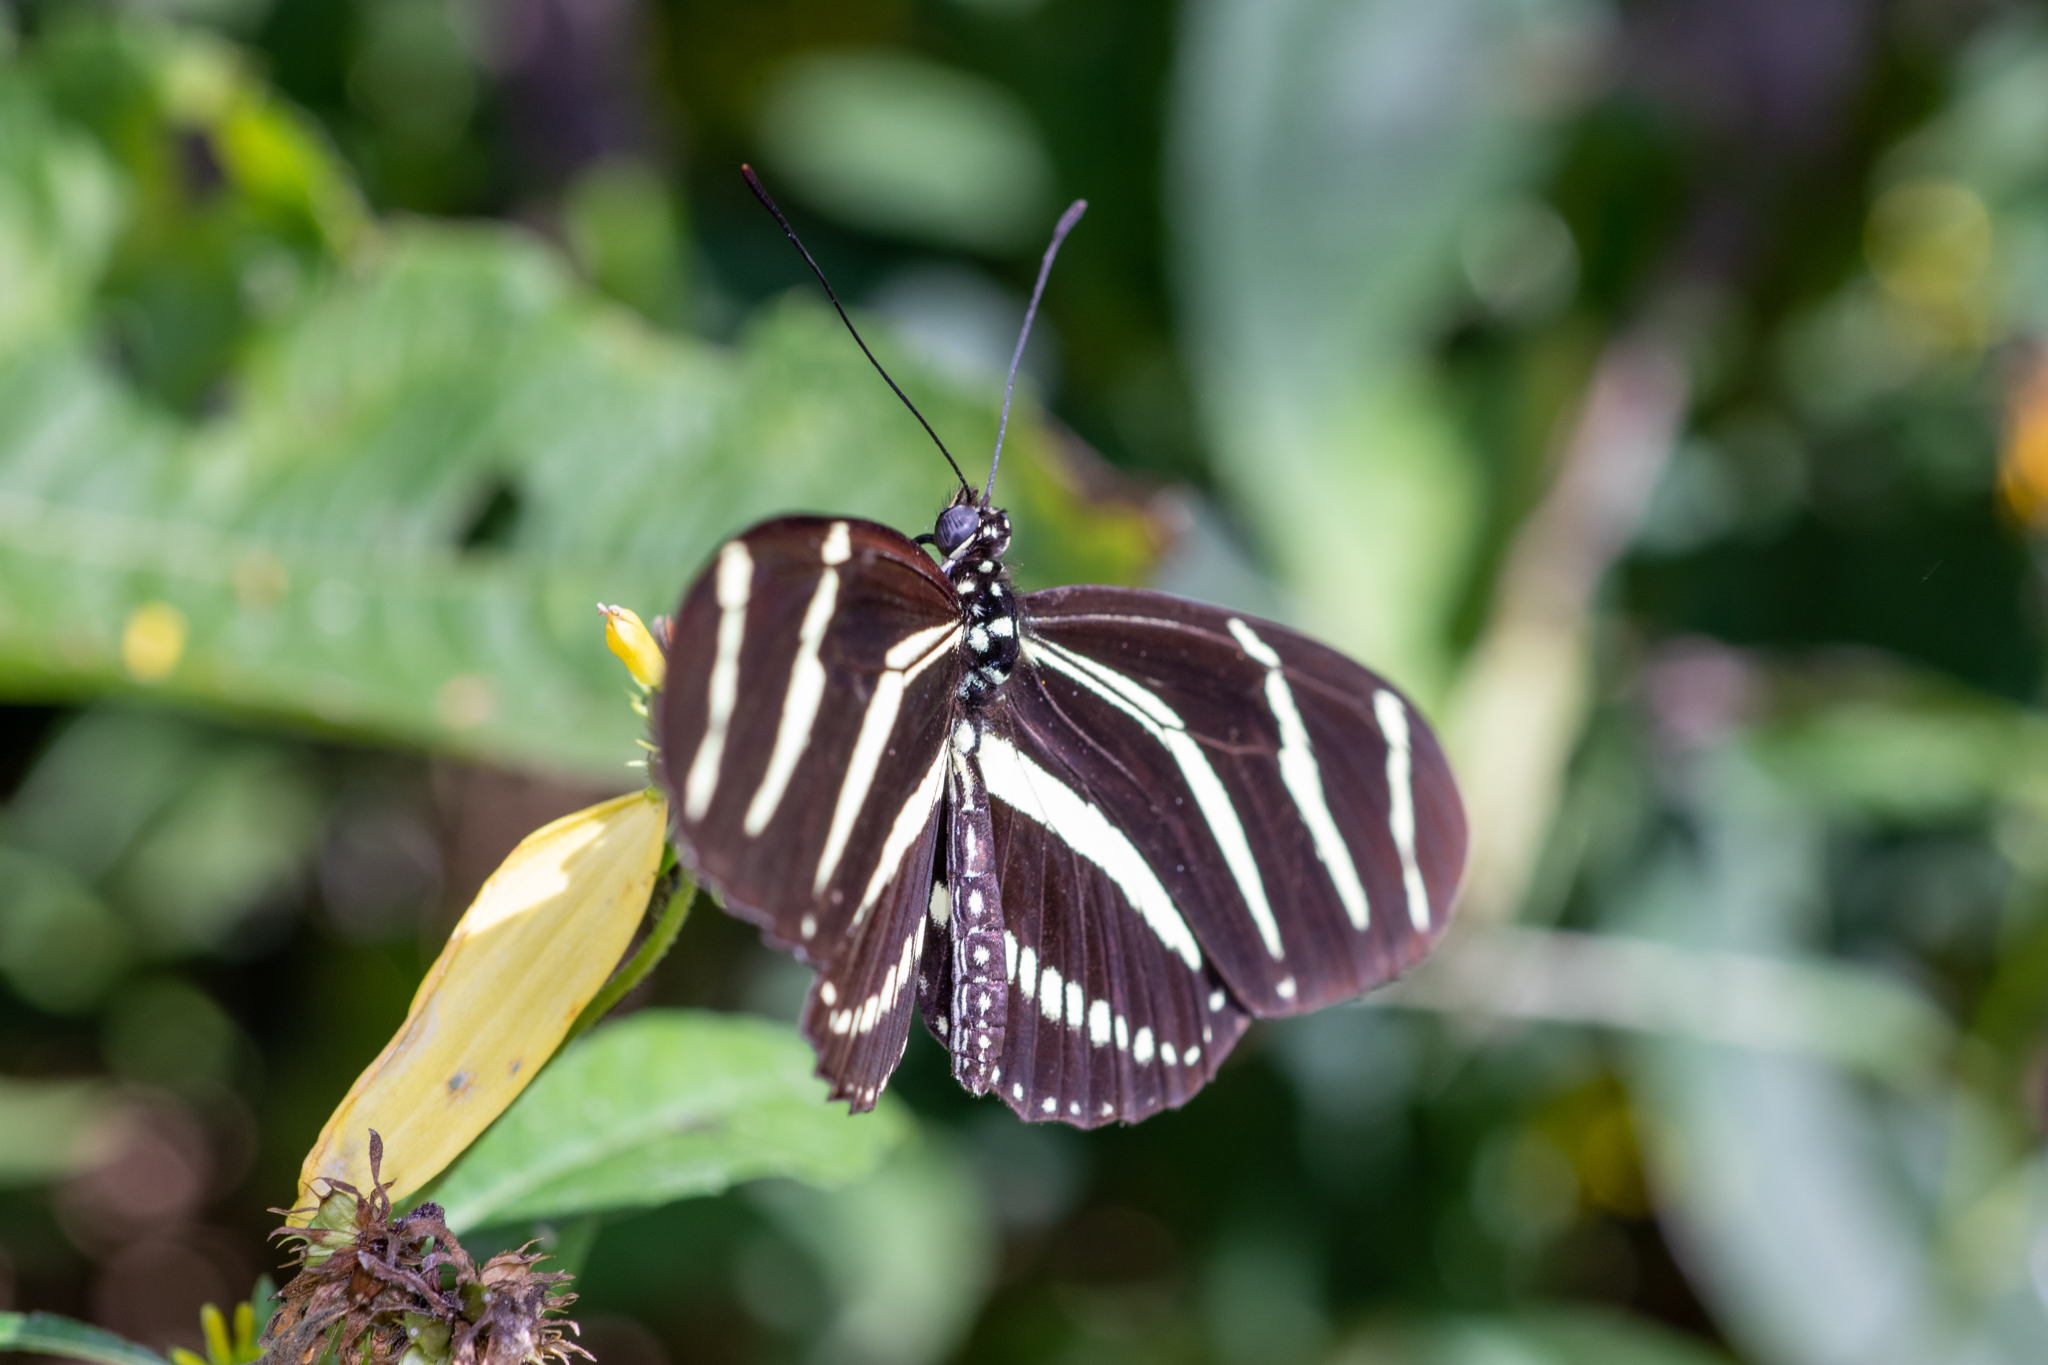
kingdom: Animalia
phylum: Arthropoda
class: Insecta
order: Lepidoptera
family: Nymphalidae
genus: Heliconius
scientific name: Heliconius charithonia
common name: Zebra long wing
